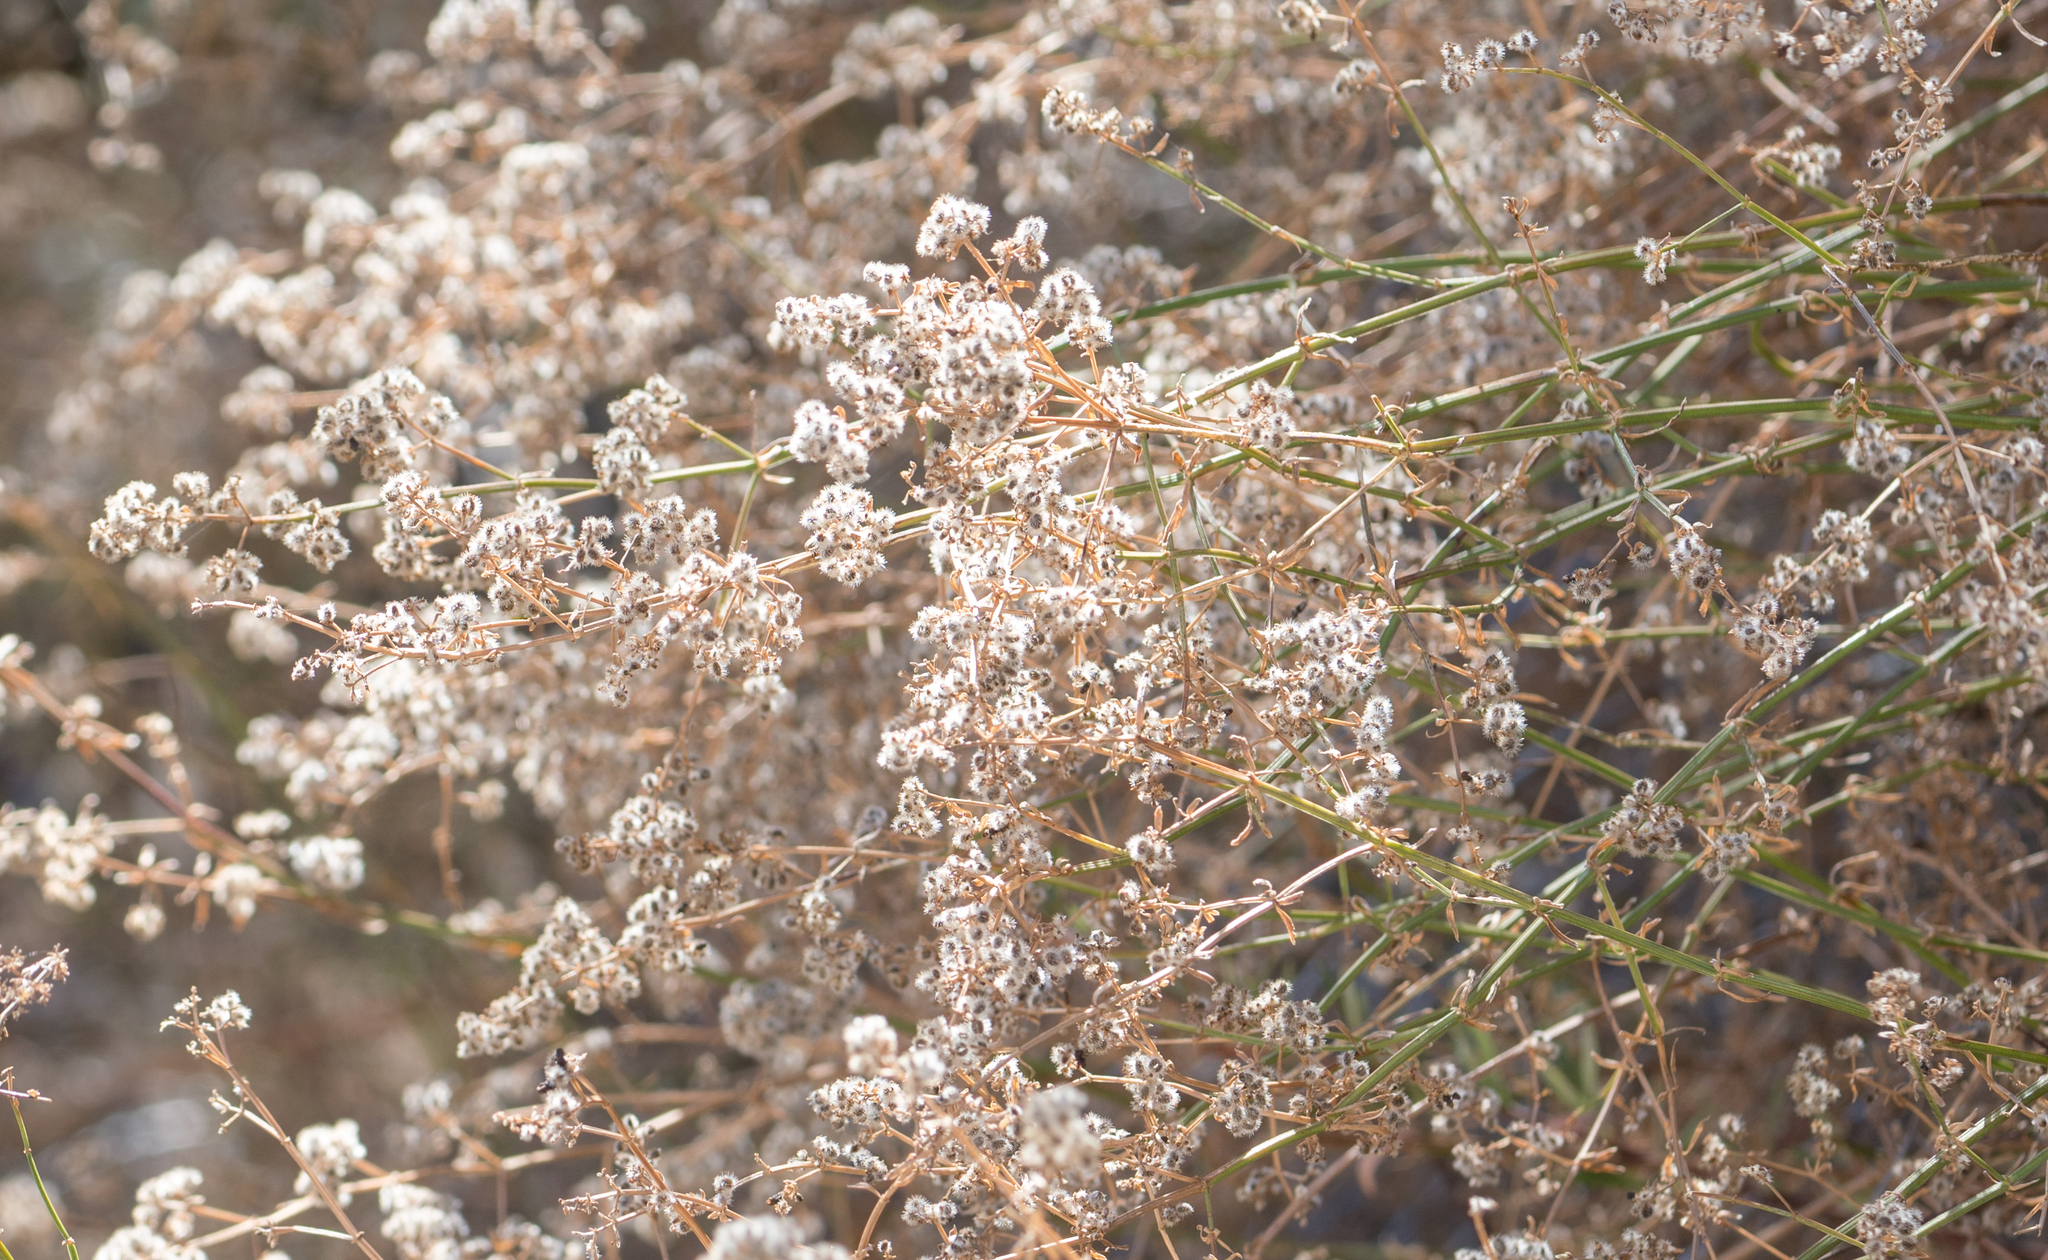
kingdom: Plantae
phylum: Tracheophyta
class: Magnoliopsida
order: Gentianales
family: Rubiaceae
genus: Galium
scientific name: Galium angustifolium
